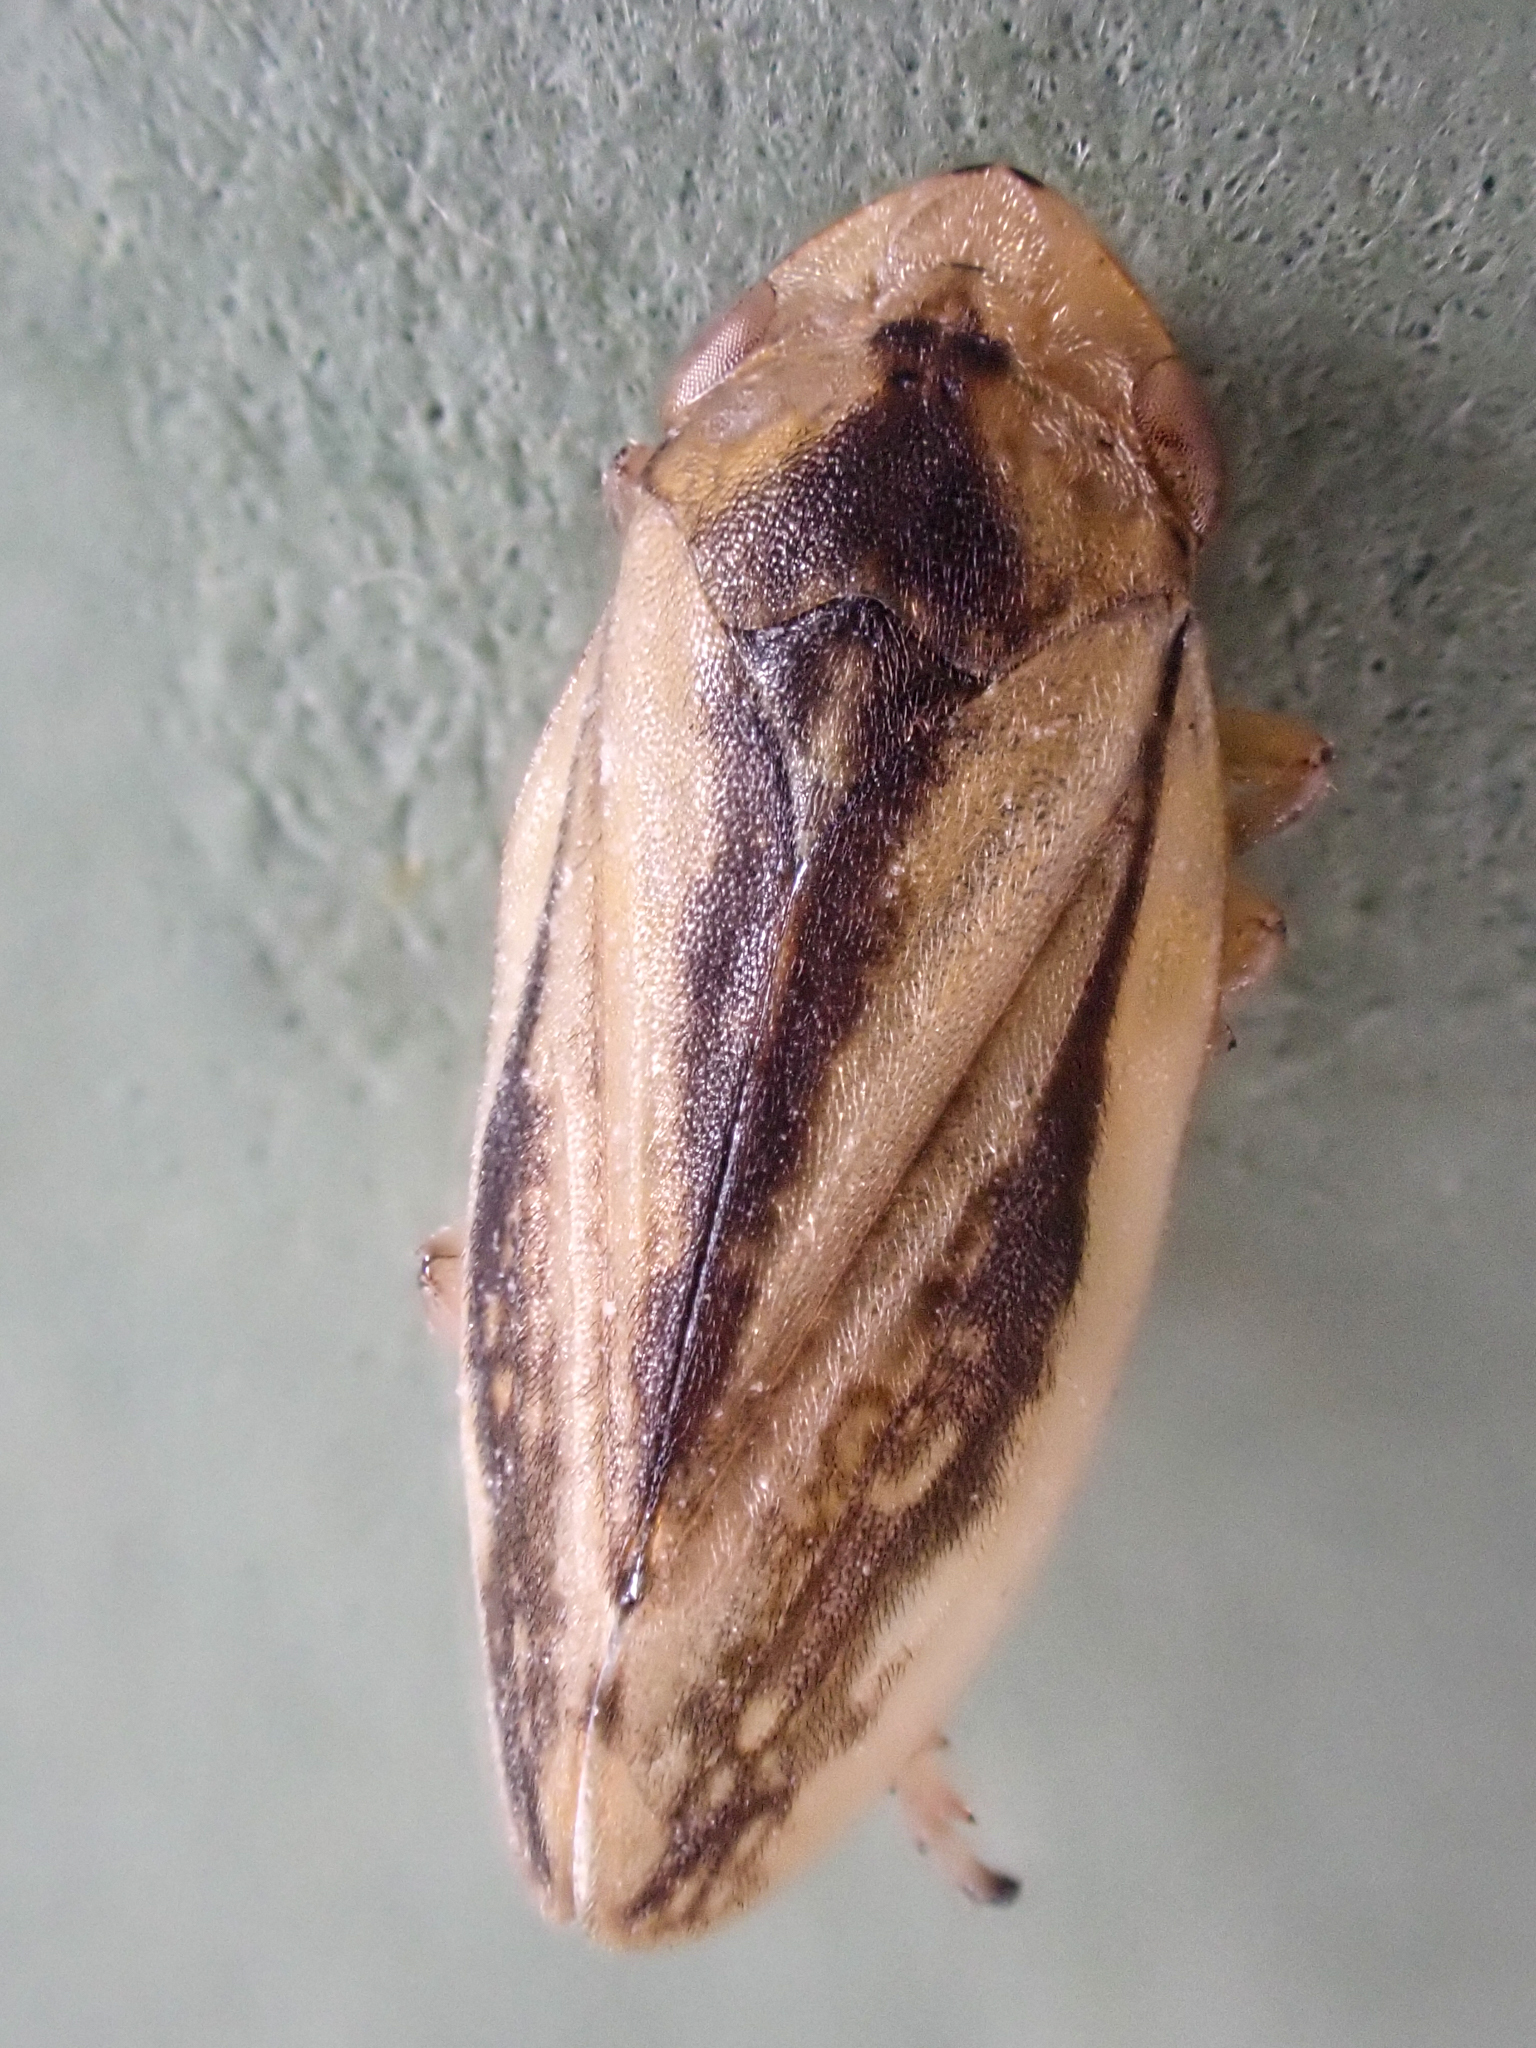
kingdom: Animalia
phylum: Arthropoda
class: Insecta
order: Hemiptera
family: Aphrophoridae
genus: Philaenus
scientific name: Philaenus spumarius
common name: Meadow spittlebug
